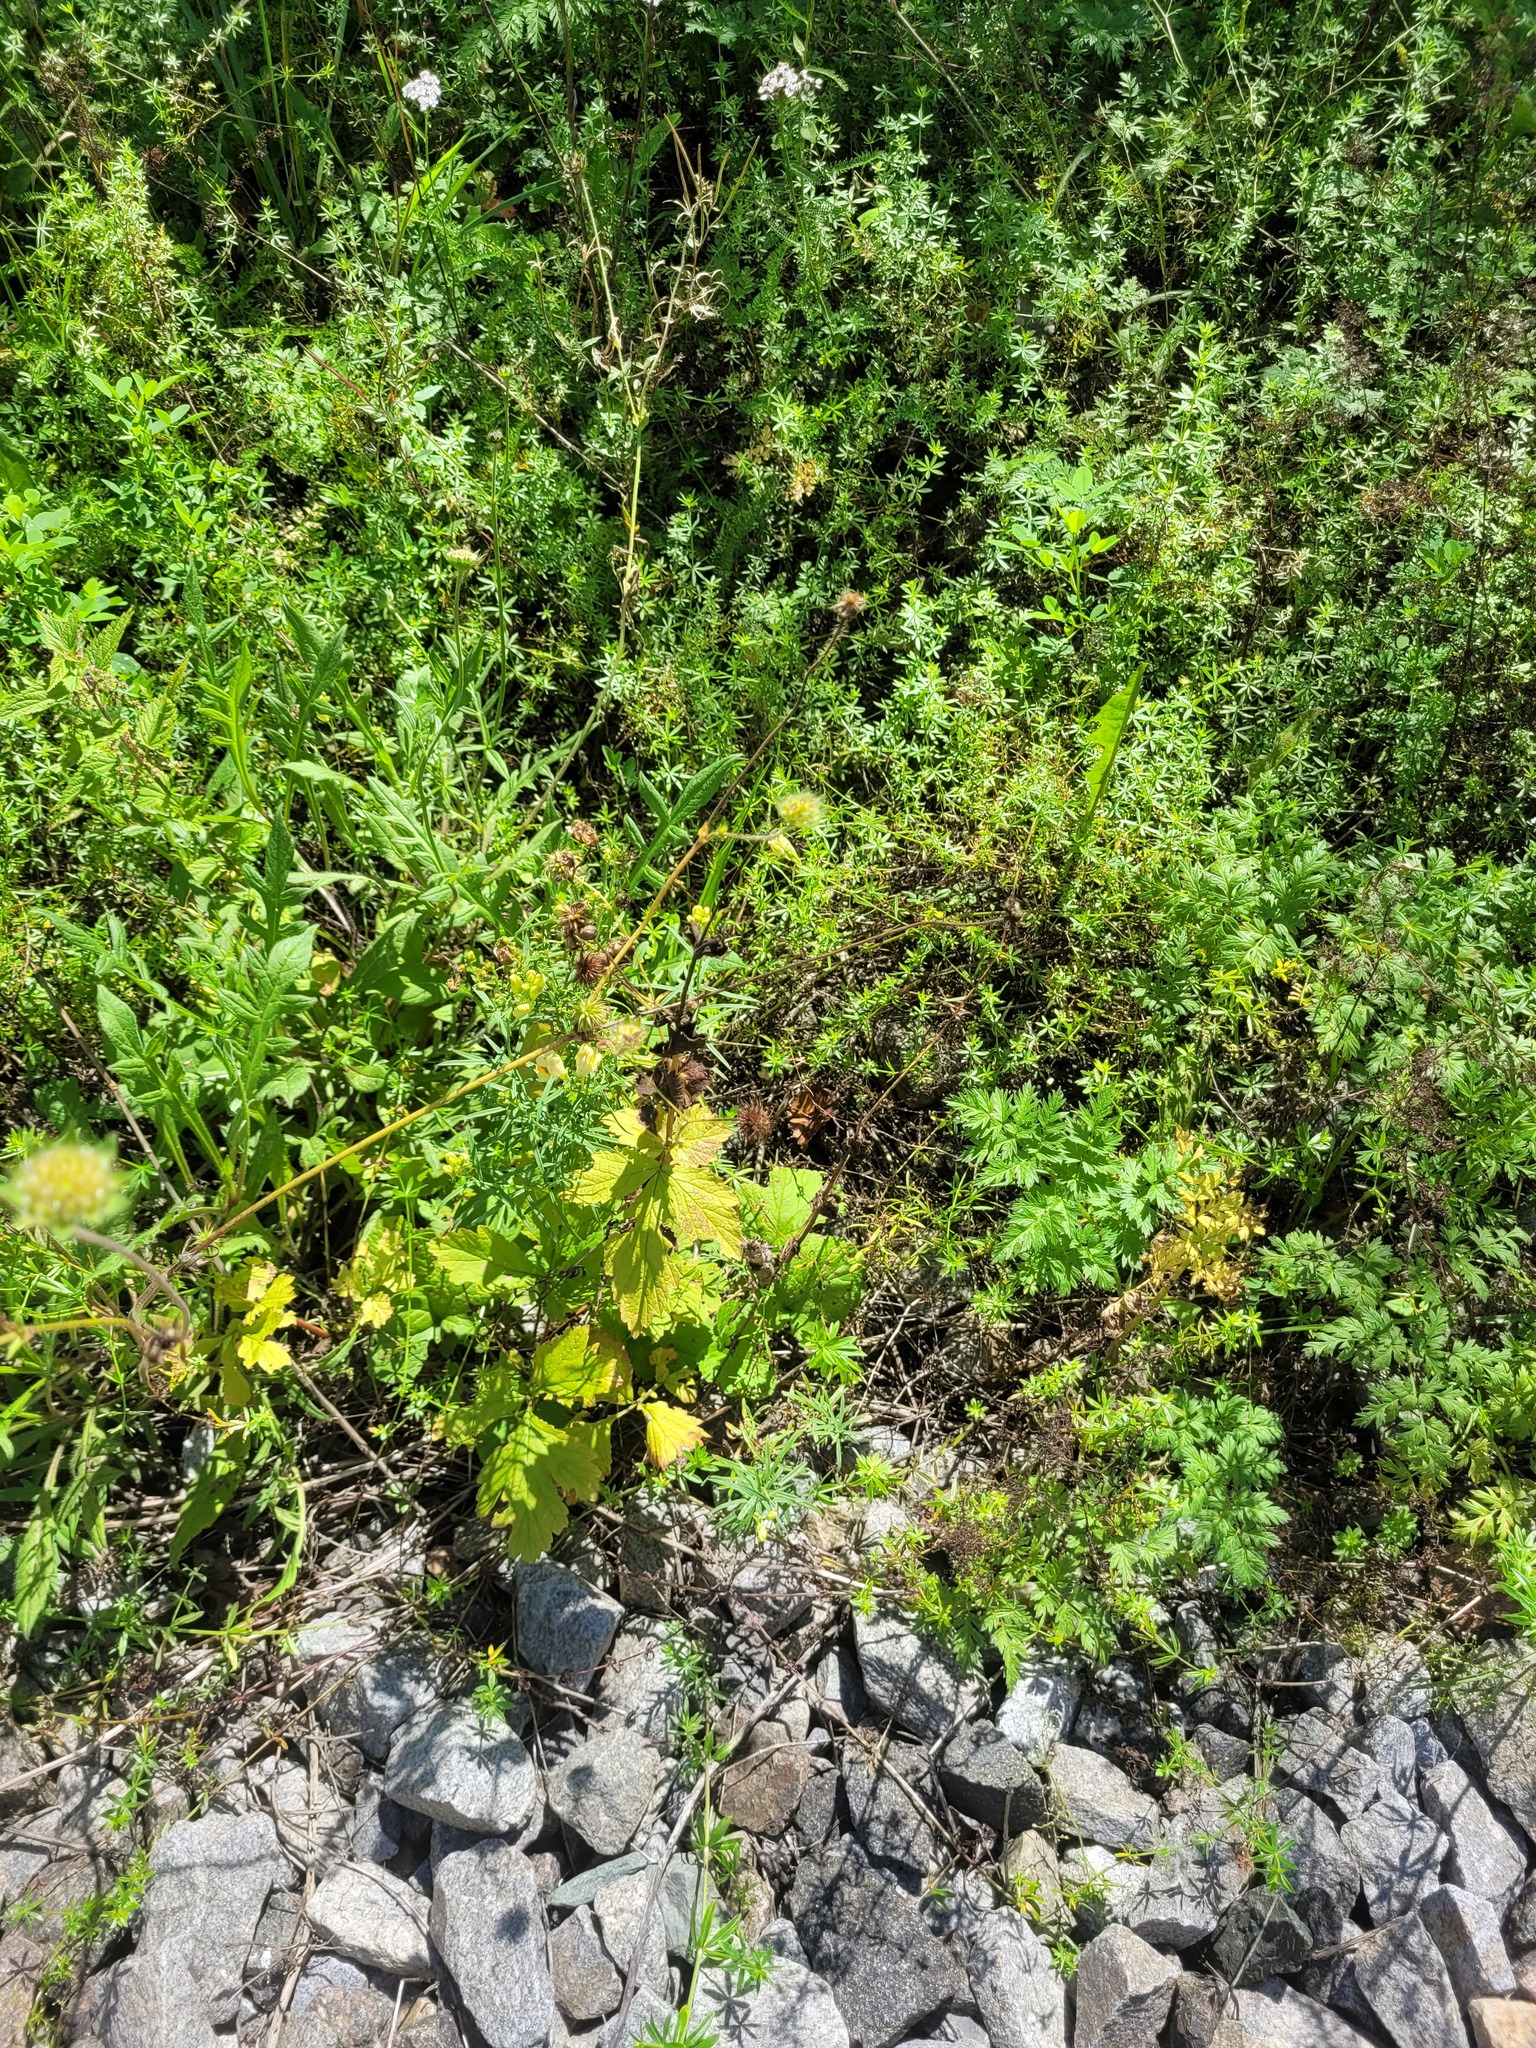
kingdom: Plantae
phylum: Tracheophyta
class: Magnoliopsida
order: Rosales
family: Rosaceae
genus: Geum
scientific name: Geum urbanum
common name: Wood avens
